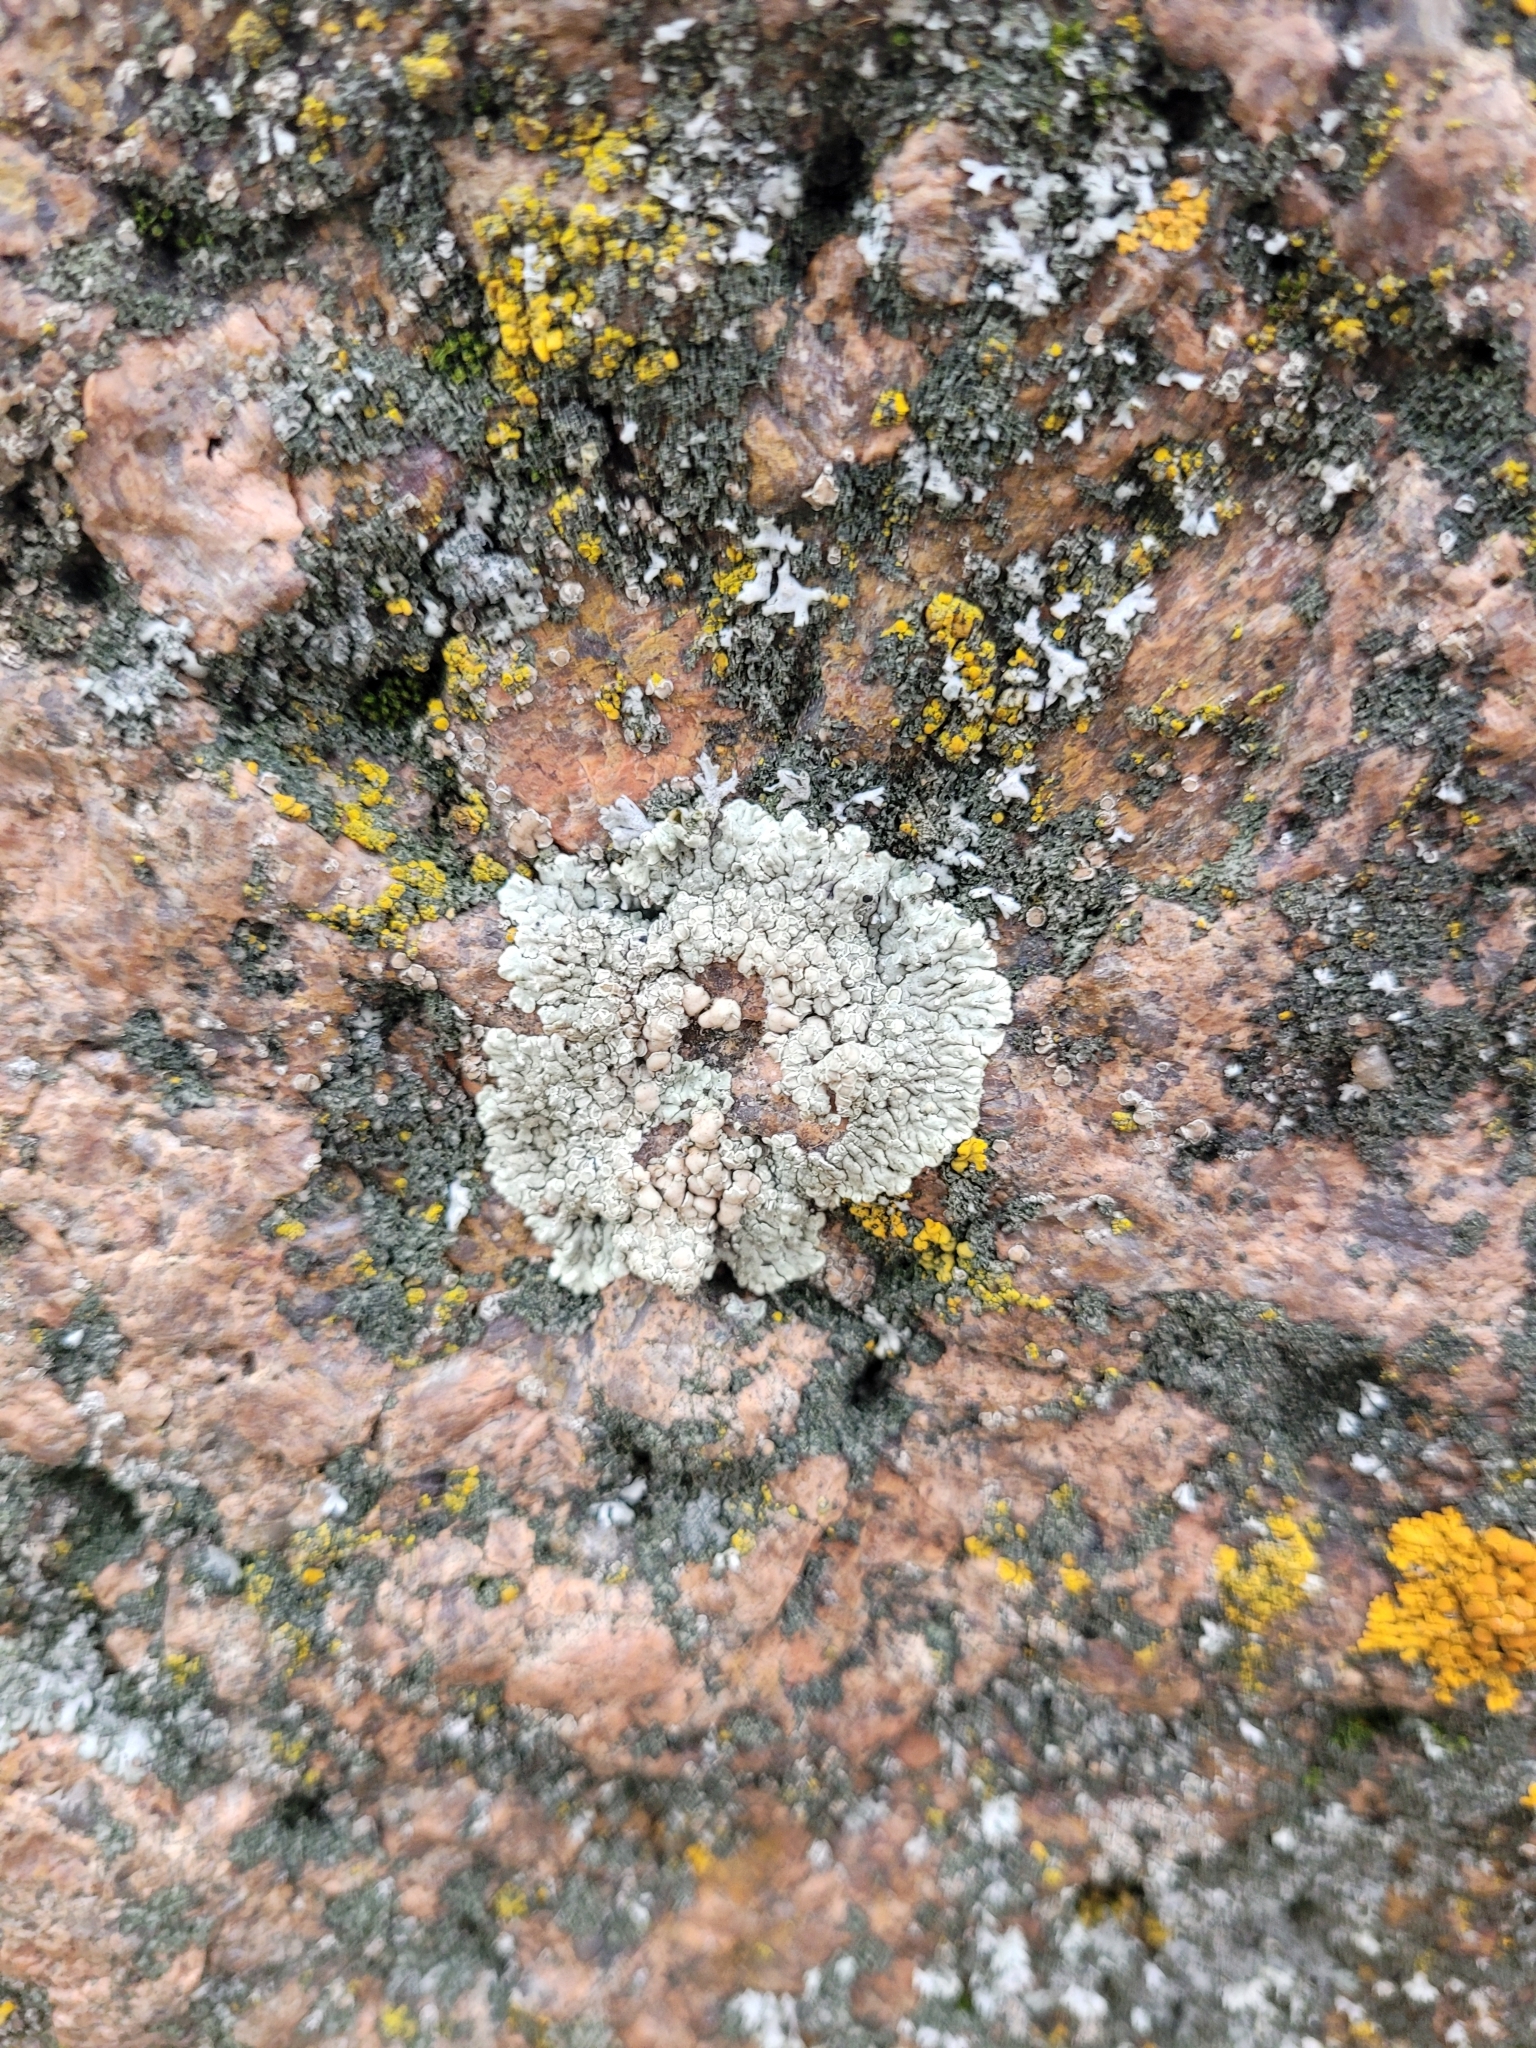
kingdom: Fungi
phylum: Ascomycota
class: Lecanoromycetes
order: Lecanorales
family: Lecanoraceae
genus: Protoparmeliopsis
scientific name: Protoparmeliopsis muralis
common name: Stonewall rim lichen
